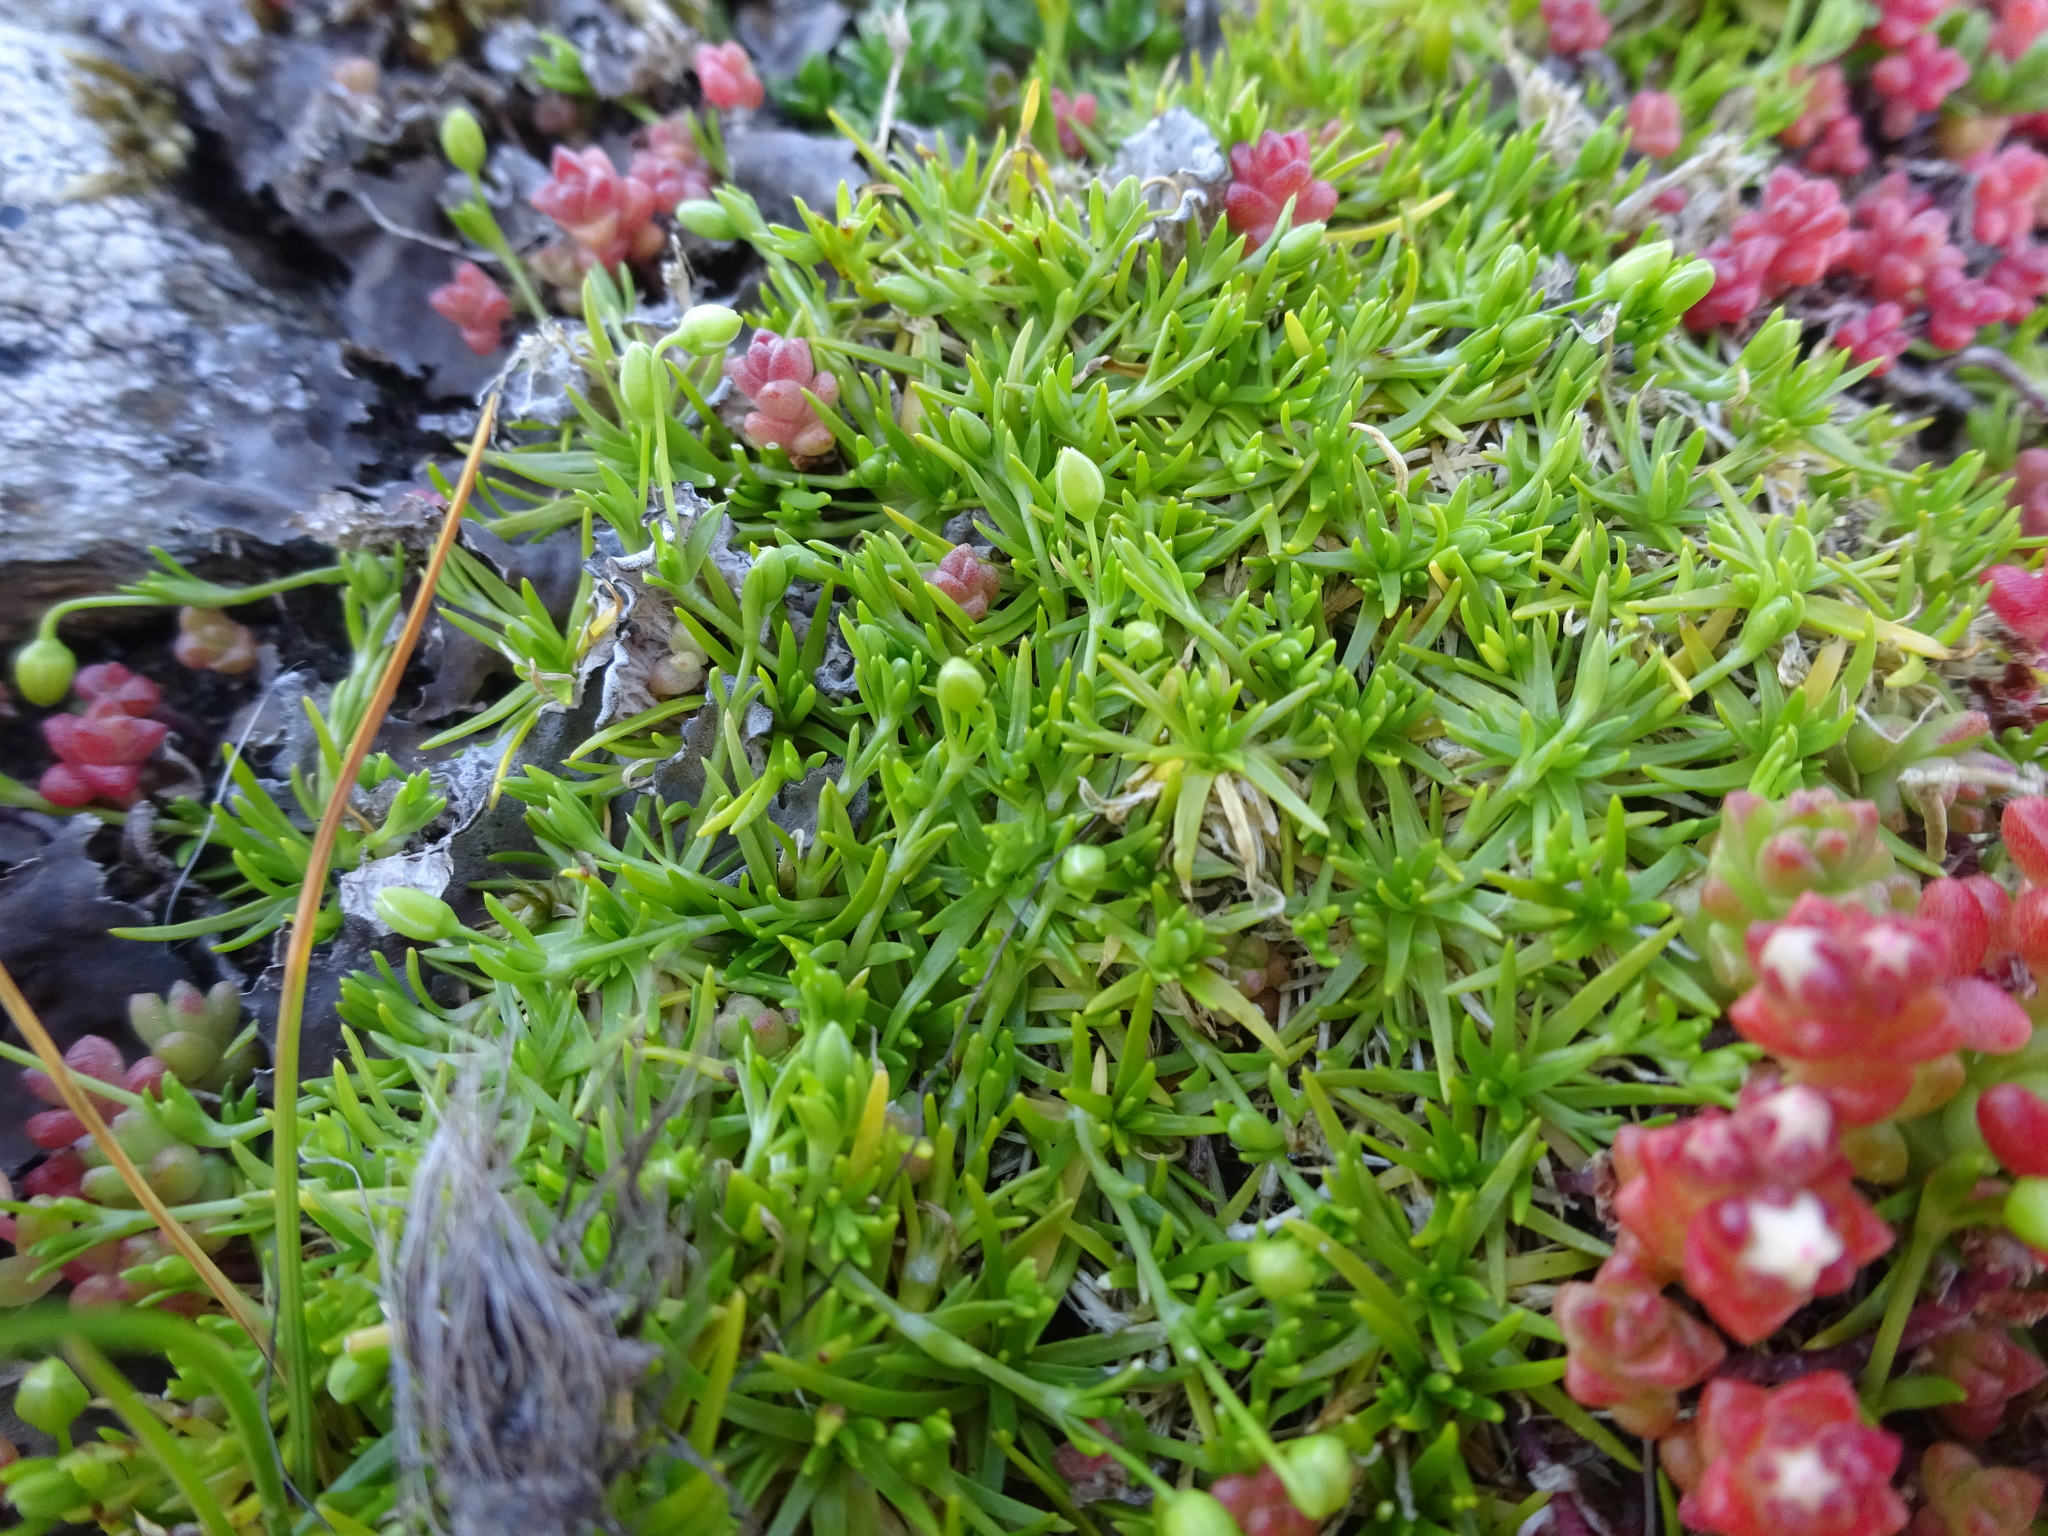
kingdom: Plantae
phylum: Tracheophyta
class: Magnoliopsida
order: Caryophyllales
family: Caryophyllaceae
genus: Sagina
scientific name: Sagina procumbens
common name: Procumbent pearlwort
